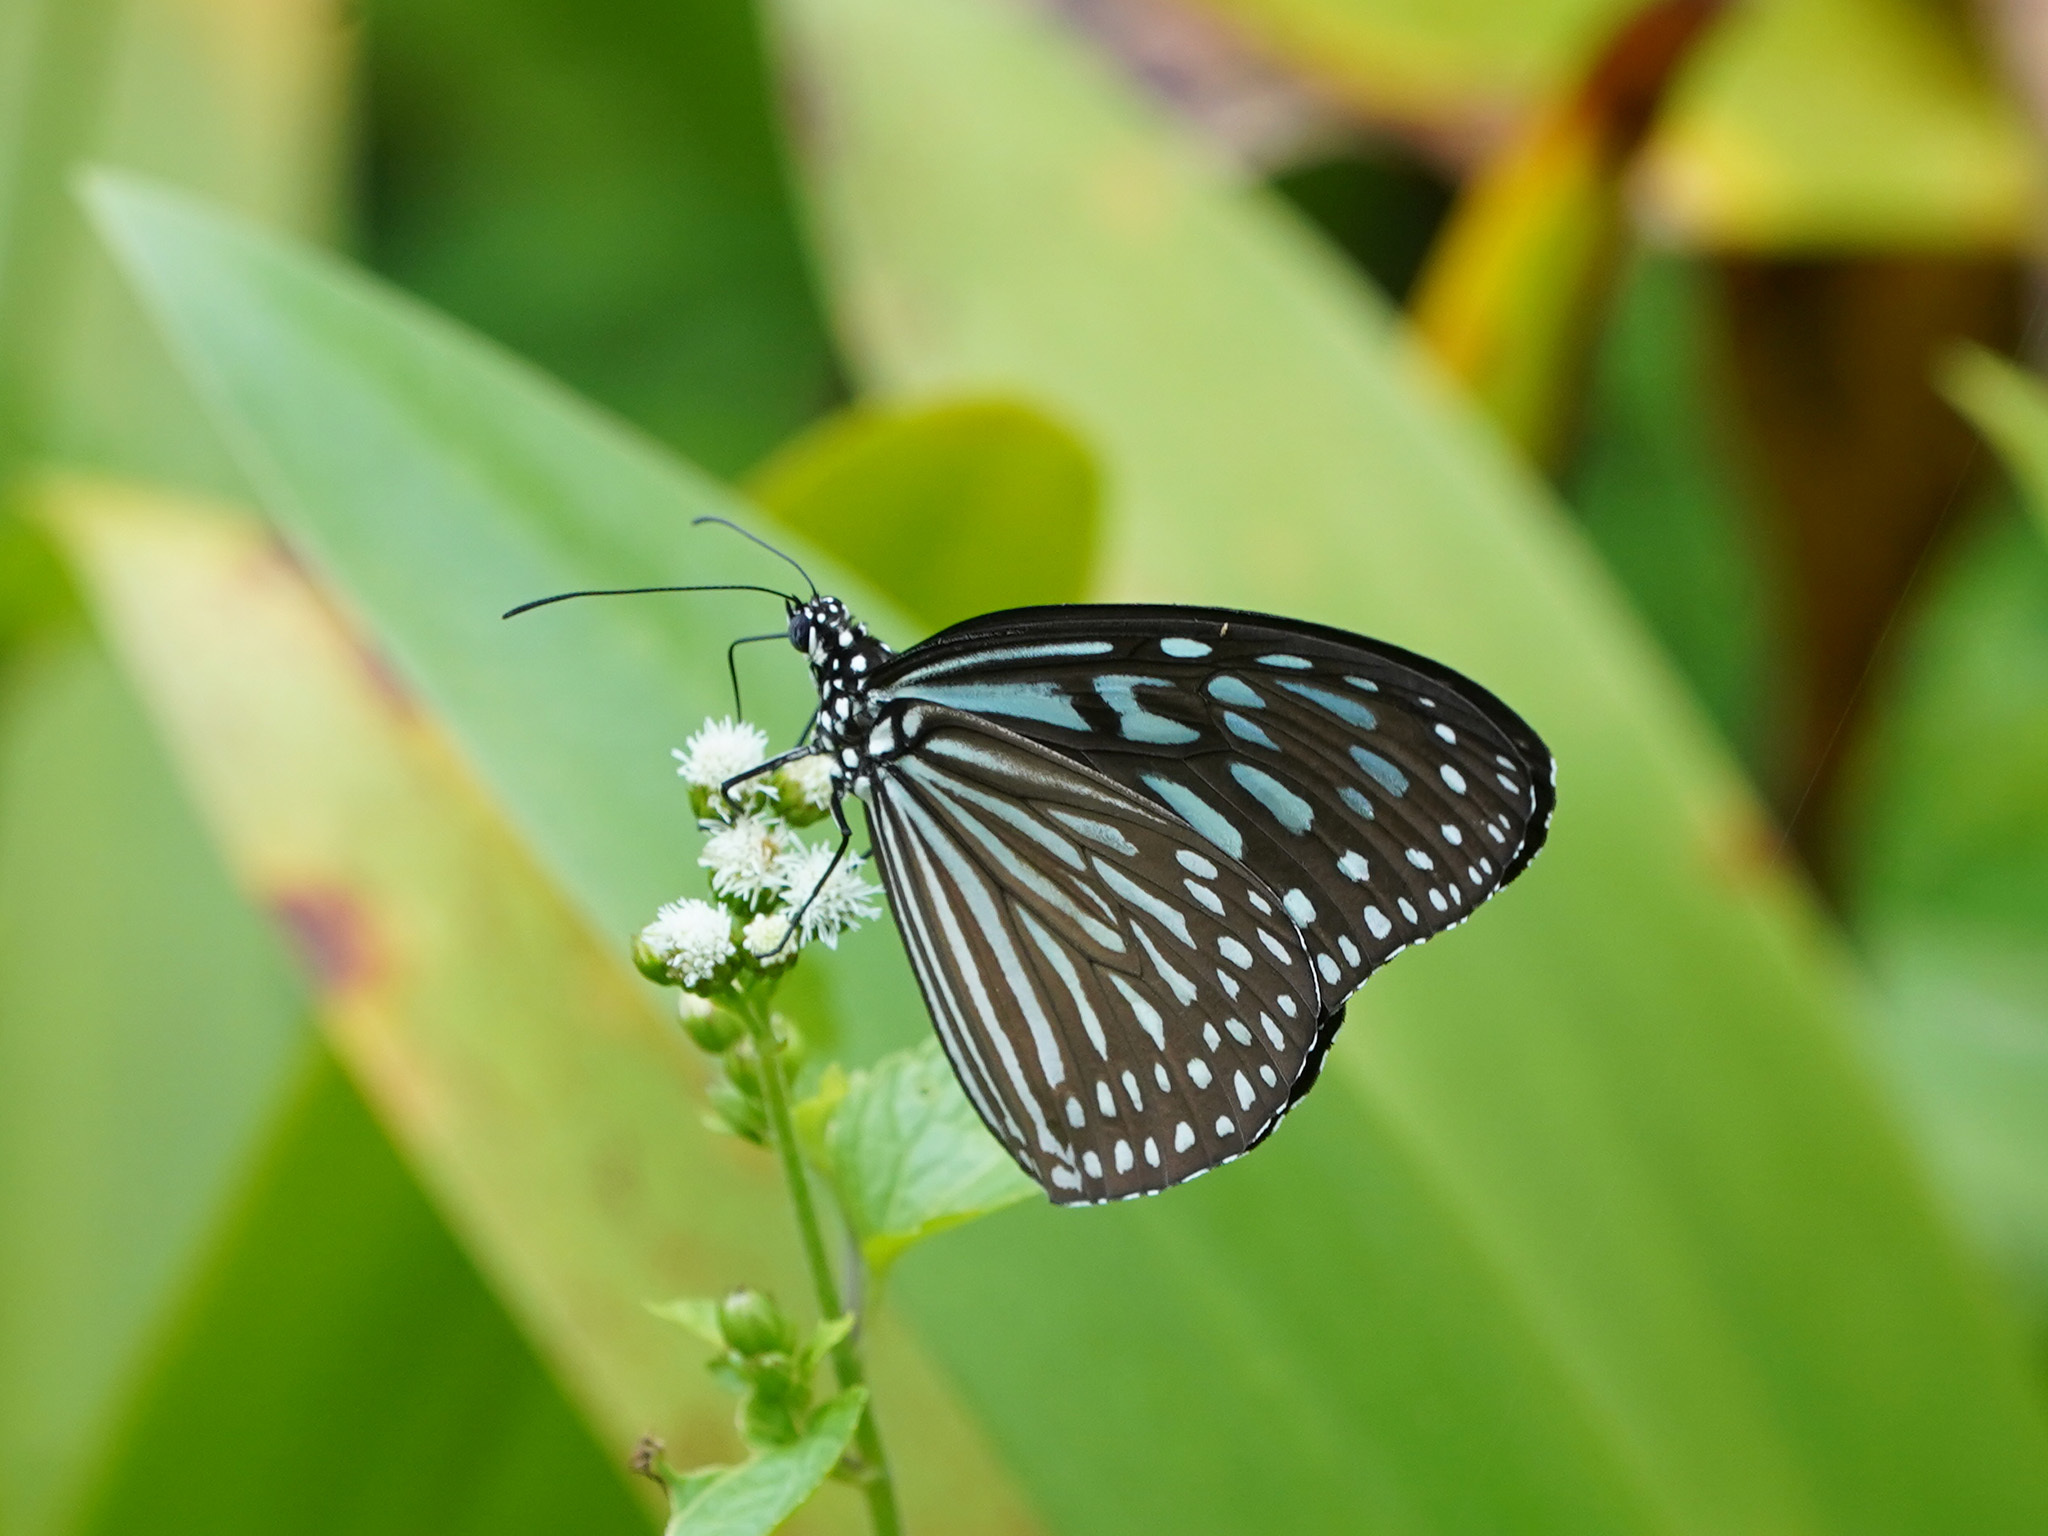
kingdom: Animalia
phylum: Arthropoda
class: Insecta
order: Lepidoptera
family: Nymphalidae
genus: Ideopsis
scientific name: Ideopsis vulgaris
